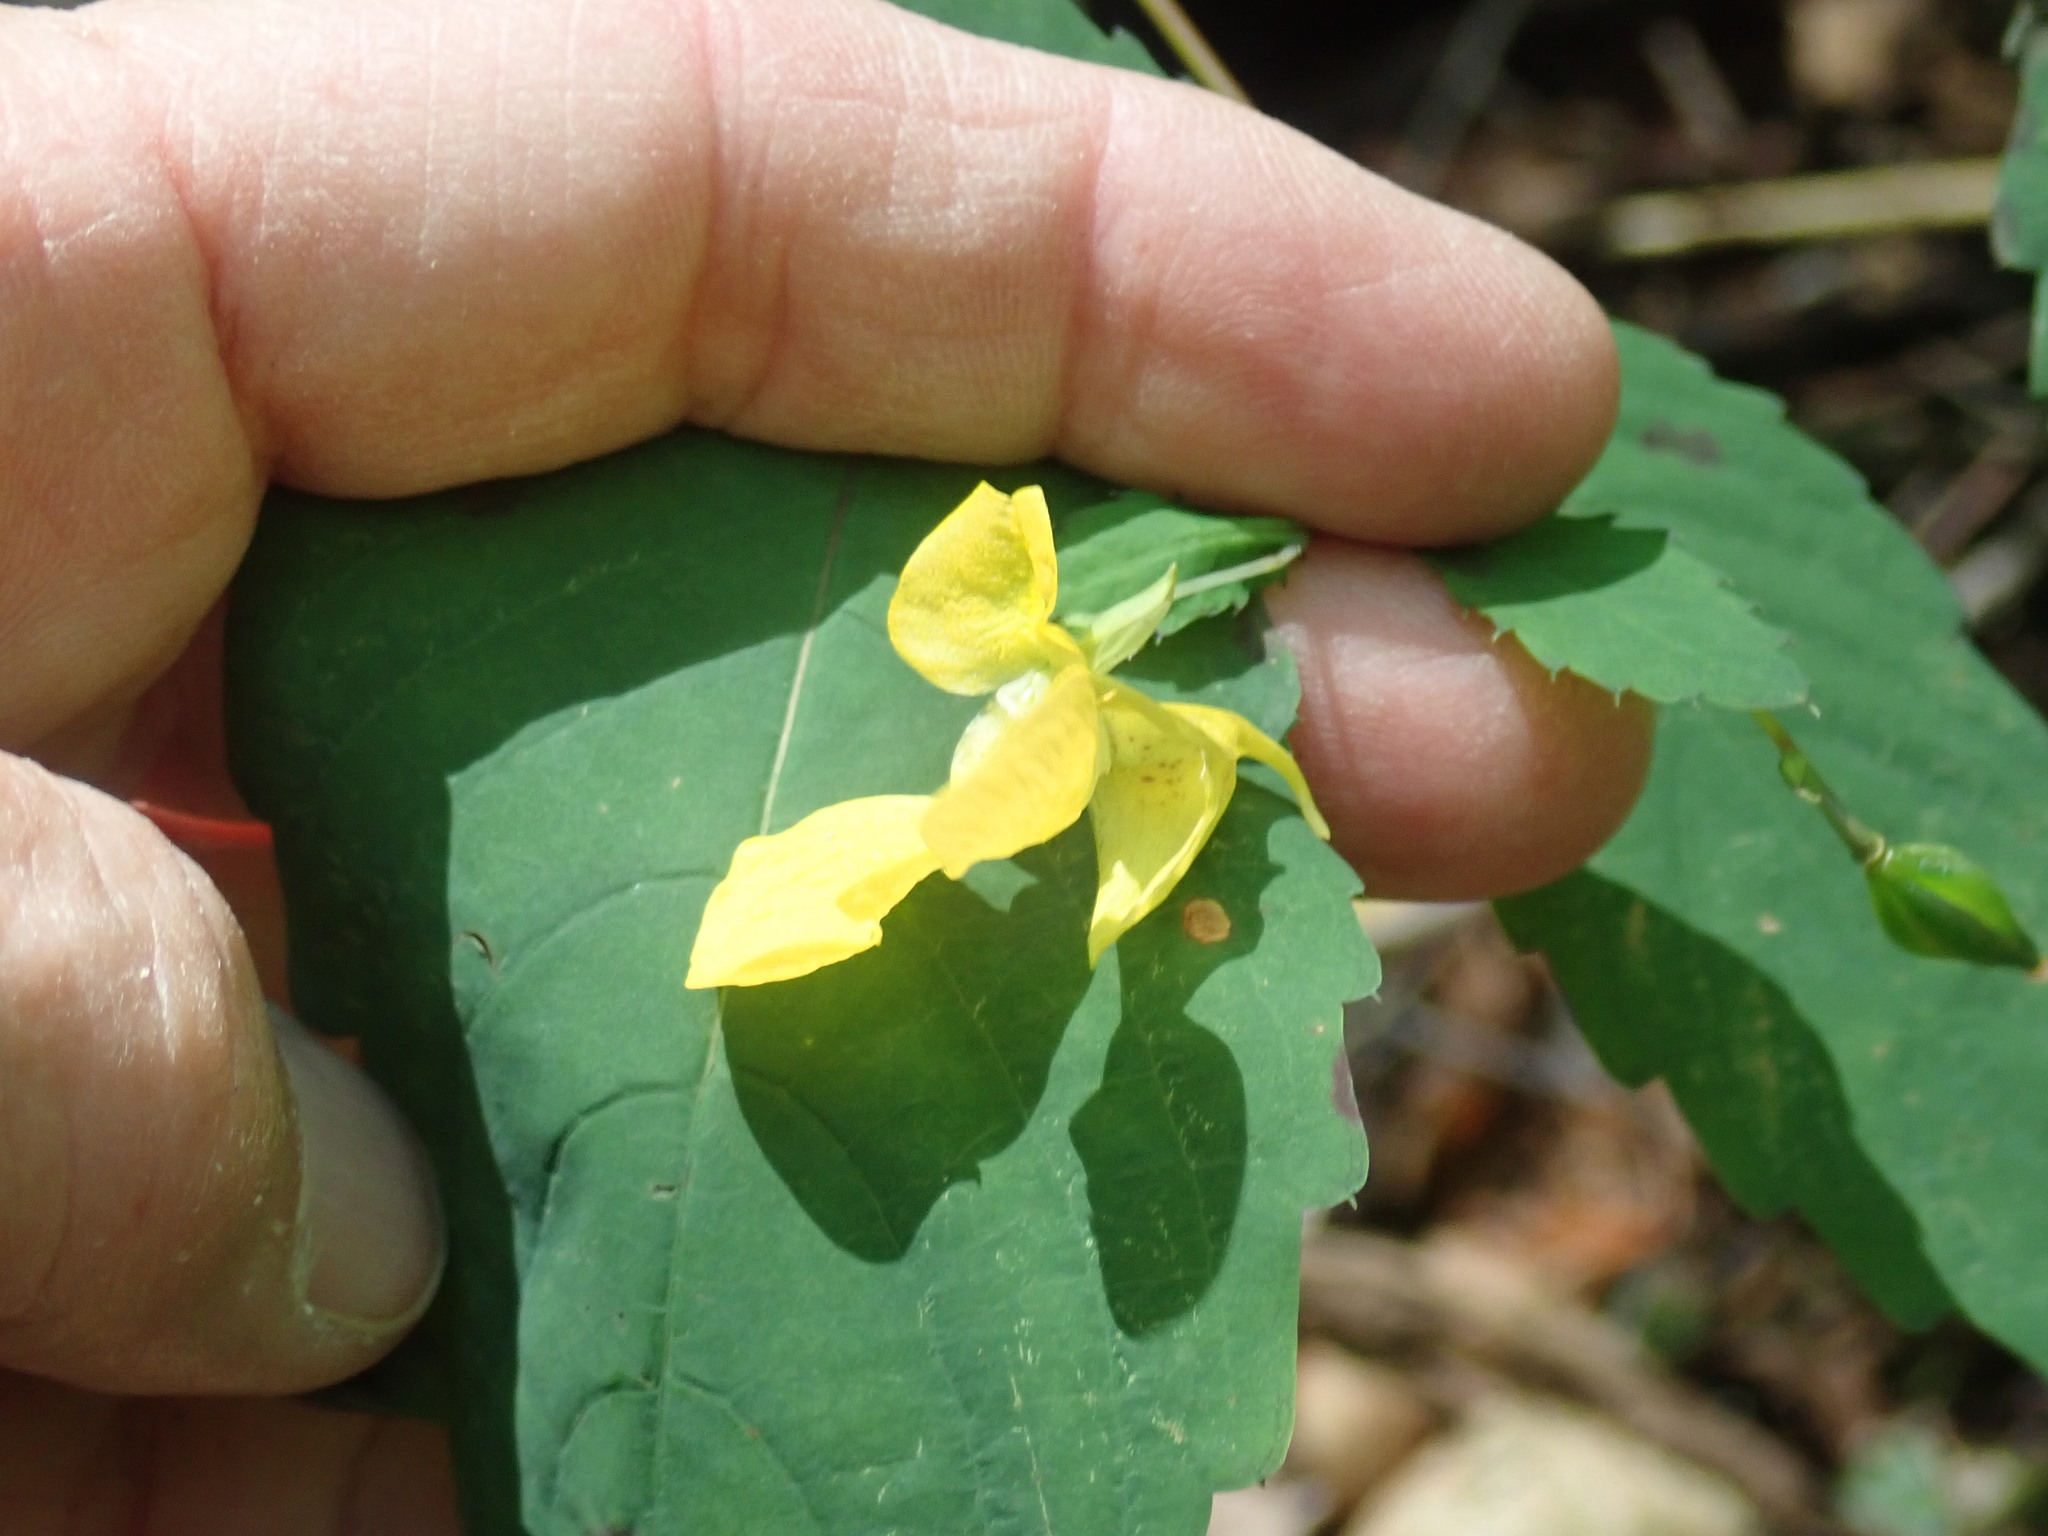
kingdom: Plantae
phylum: Tracheophyta
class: Magnoliopsida
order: Ericales
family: Balsaminaceae
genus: Impatiens
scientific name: Impatiens pallida
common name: Pale snapweed
